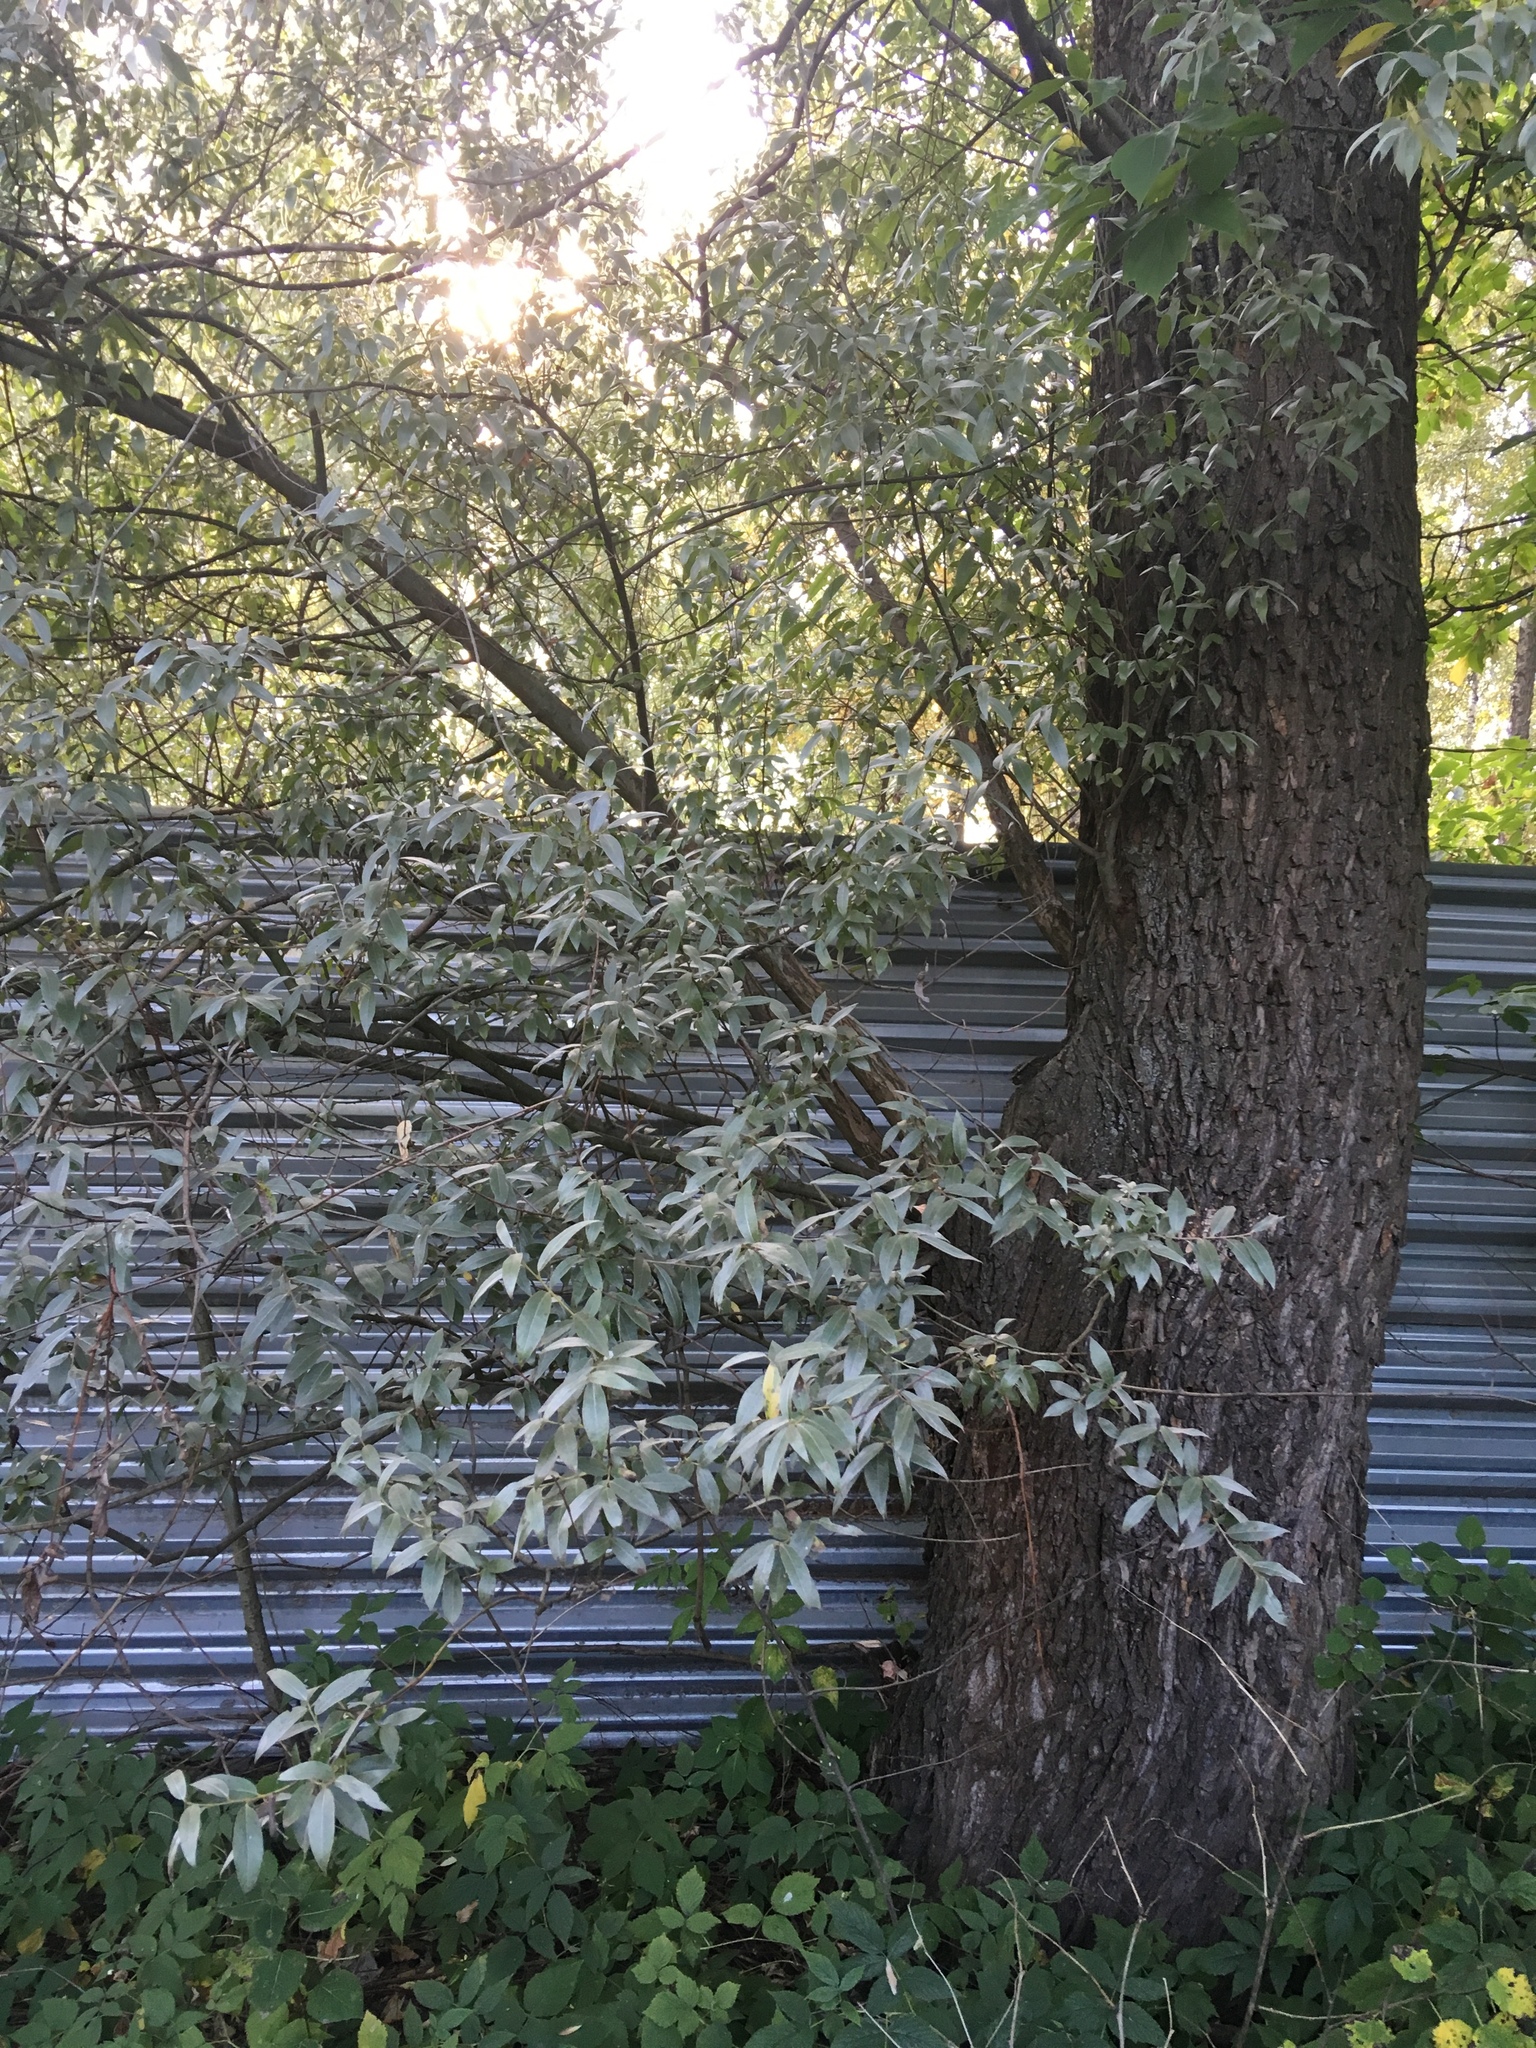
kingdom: Plantae
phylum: Tracheophyta
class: Magnoliopsida
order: Malpighiales
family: Salicaceae
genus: Salix
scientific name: Salix alba
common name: White willow
